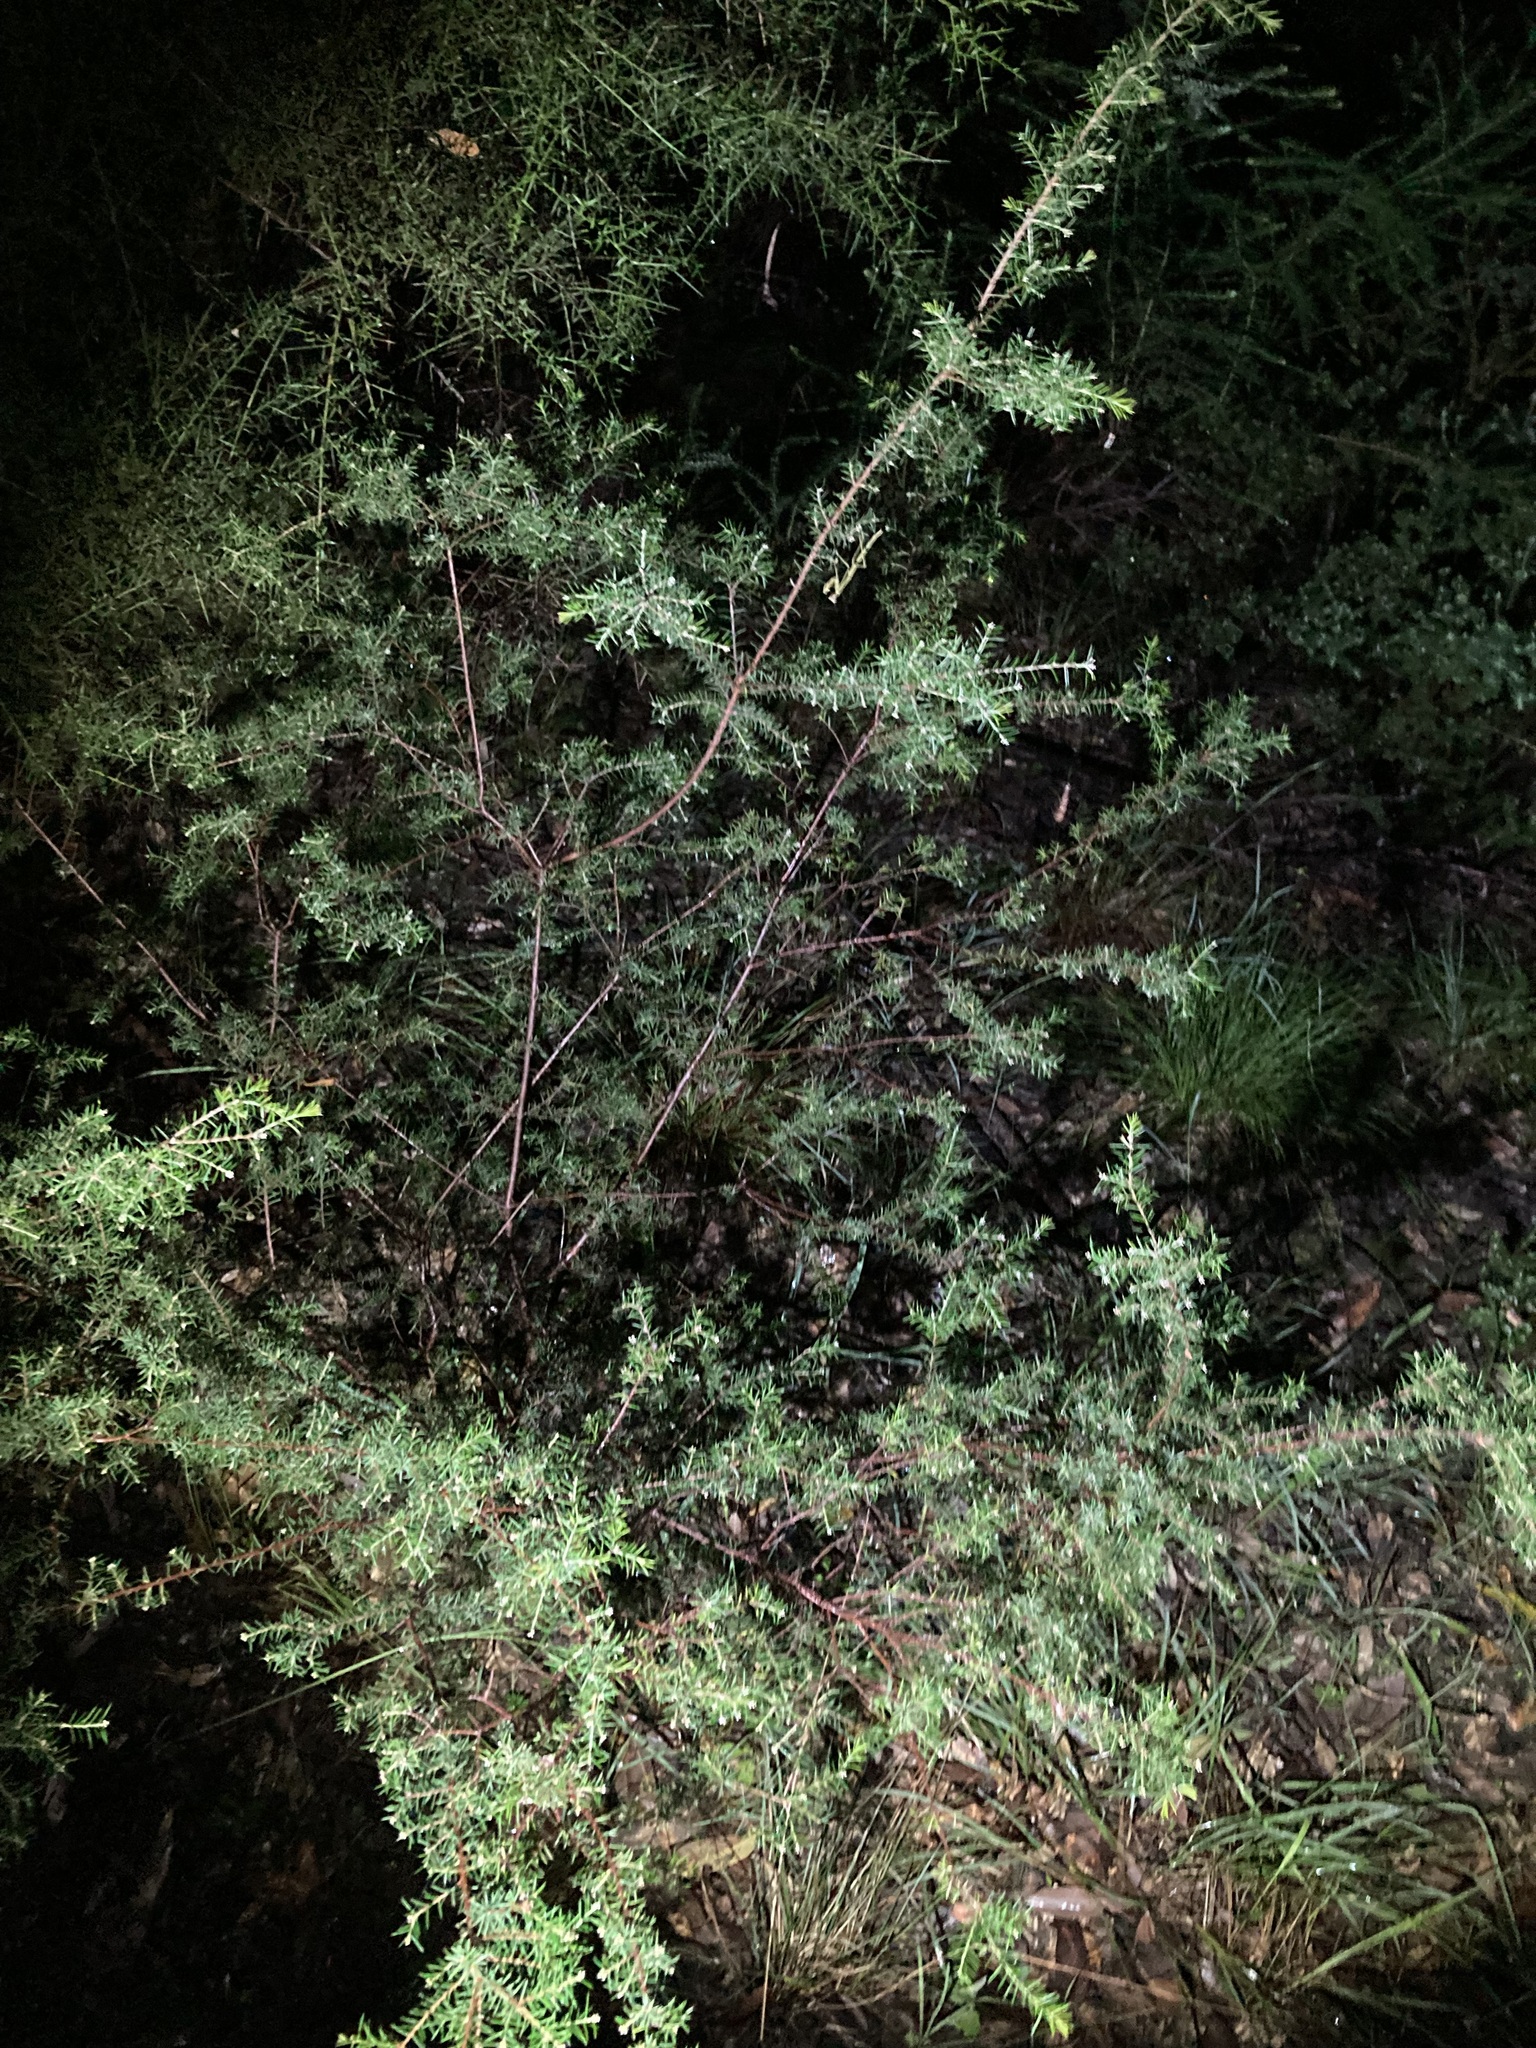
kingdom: Plantae
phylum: Tracheophyta
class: Magnoliopsida
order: Fabales
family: Fabaceae
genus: Dillwynia
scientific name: Dillwynia sieberi
